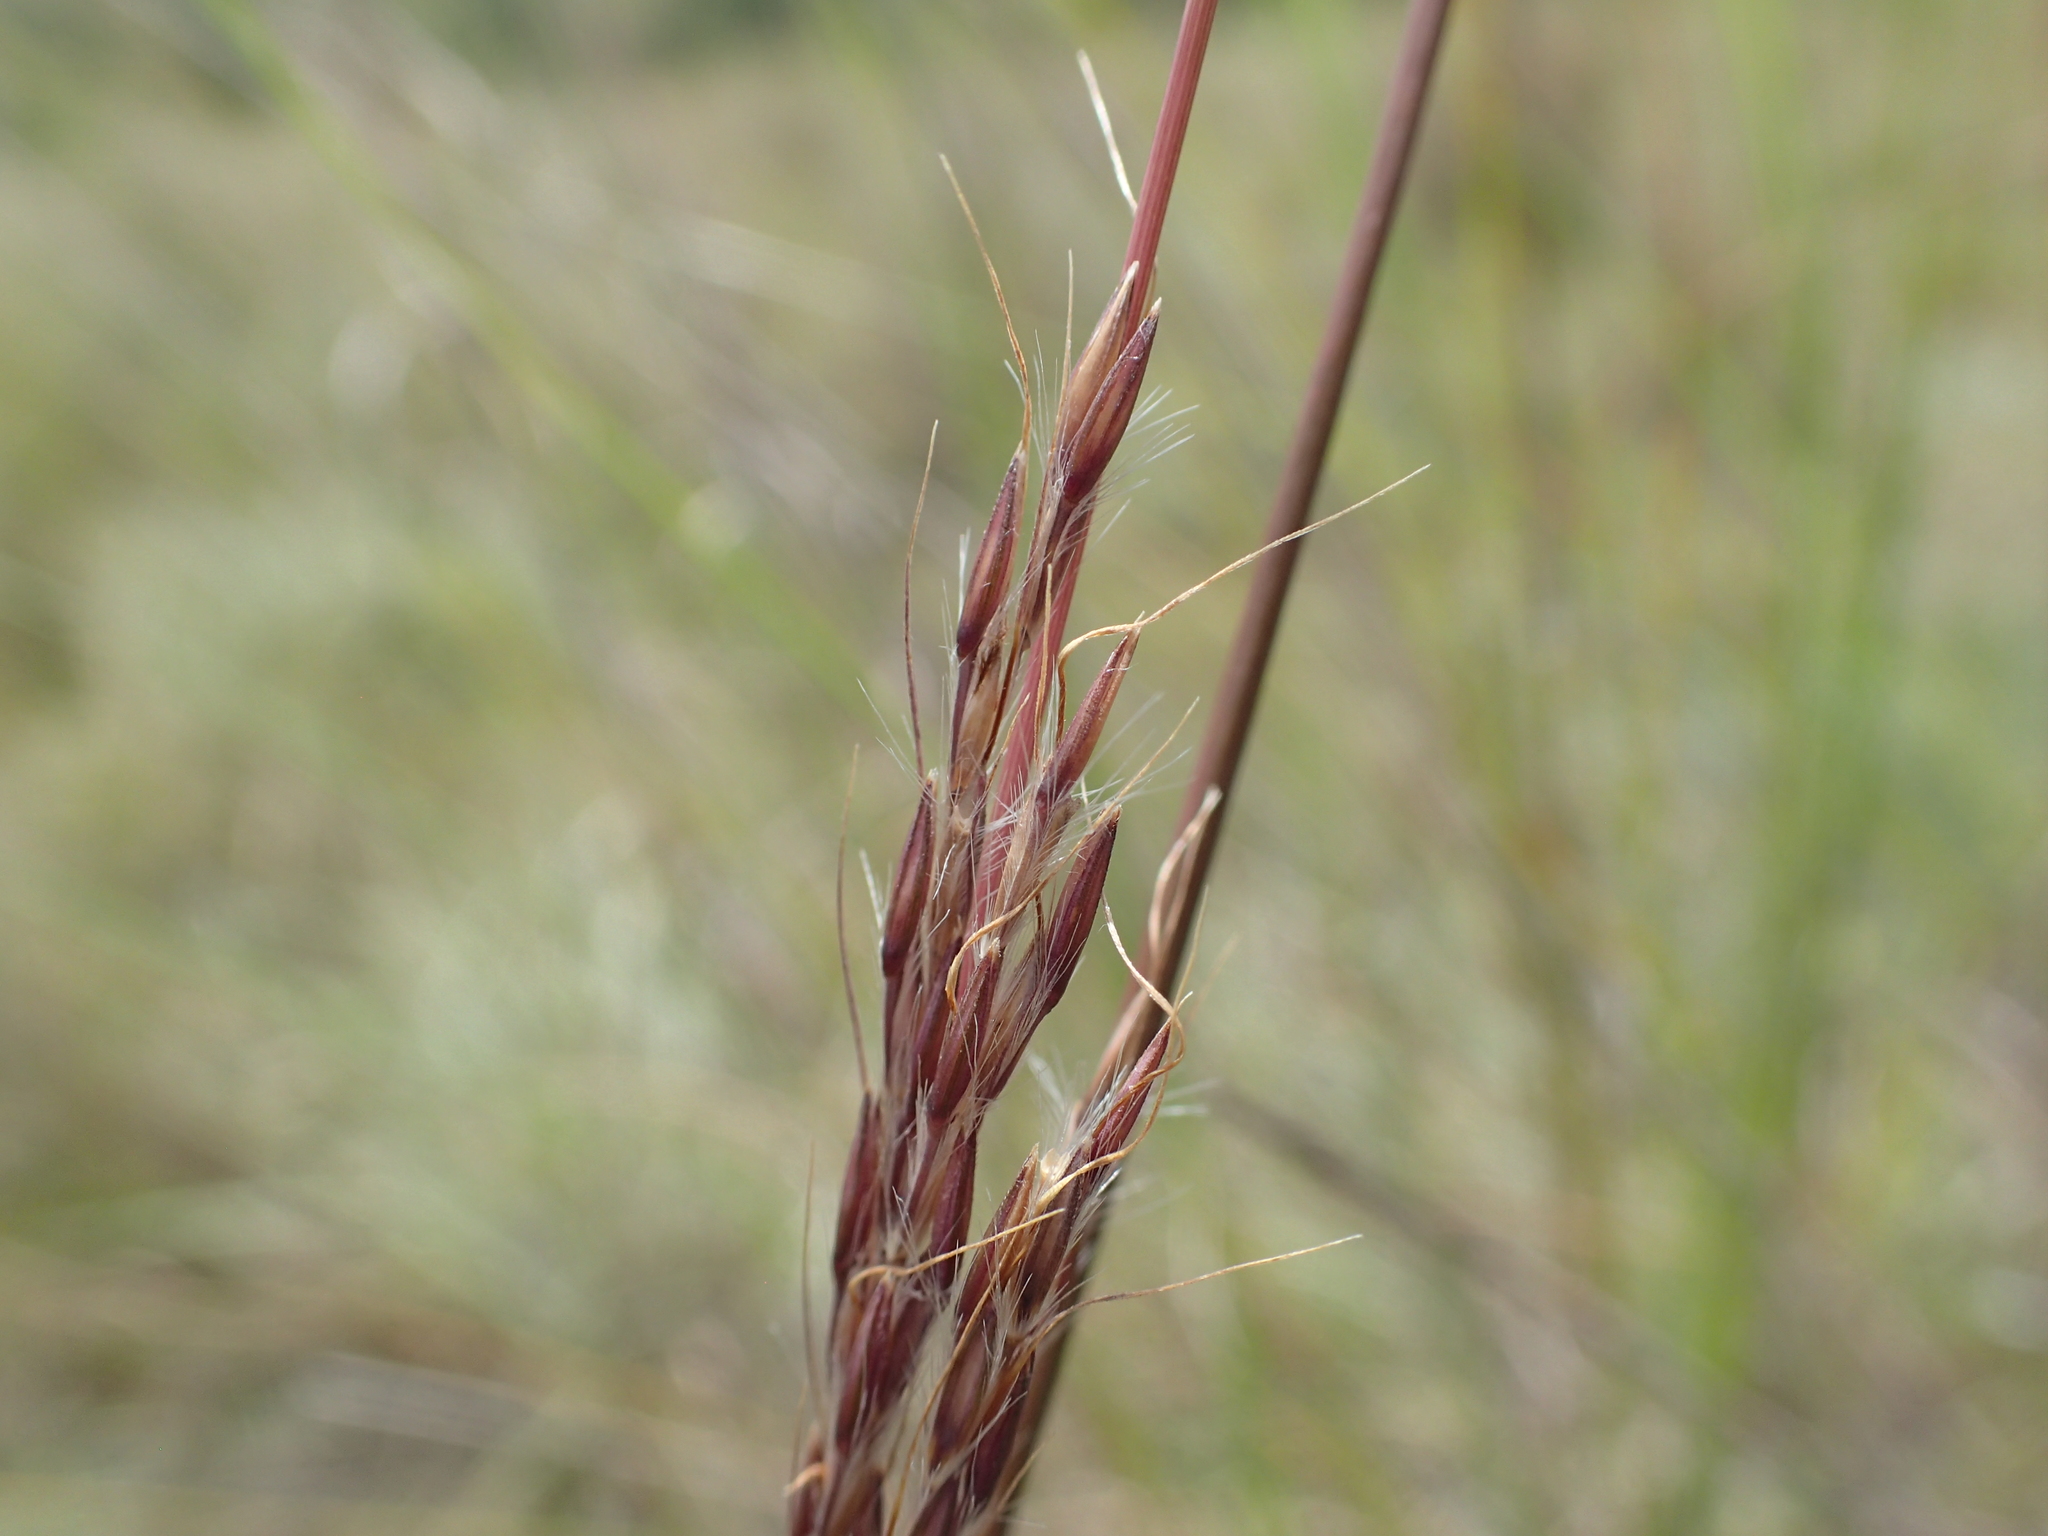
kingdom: Plantae
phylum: Tracheophyta
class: Liliopsida
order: Poales
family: Poaceae
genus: Andropogon
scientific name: Andropogon ibityensis
